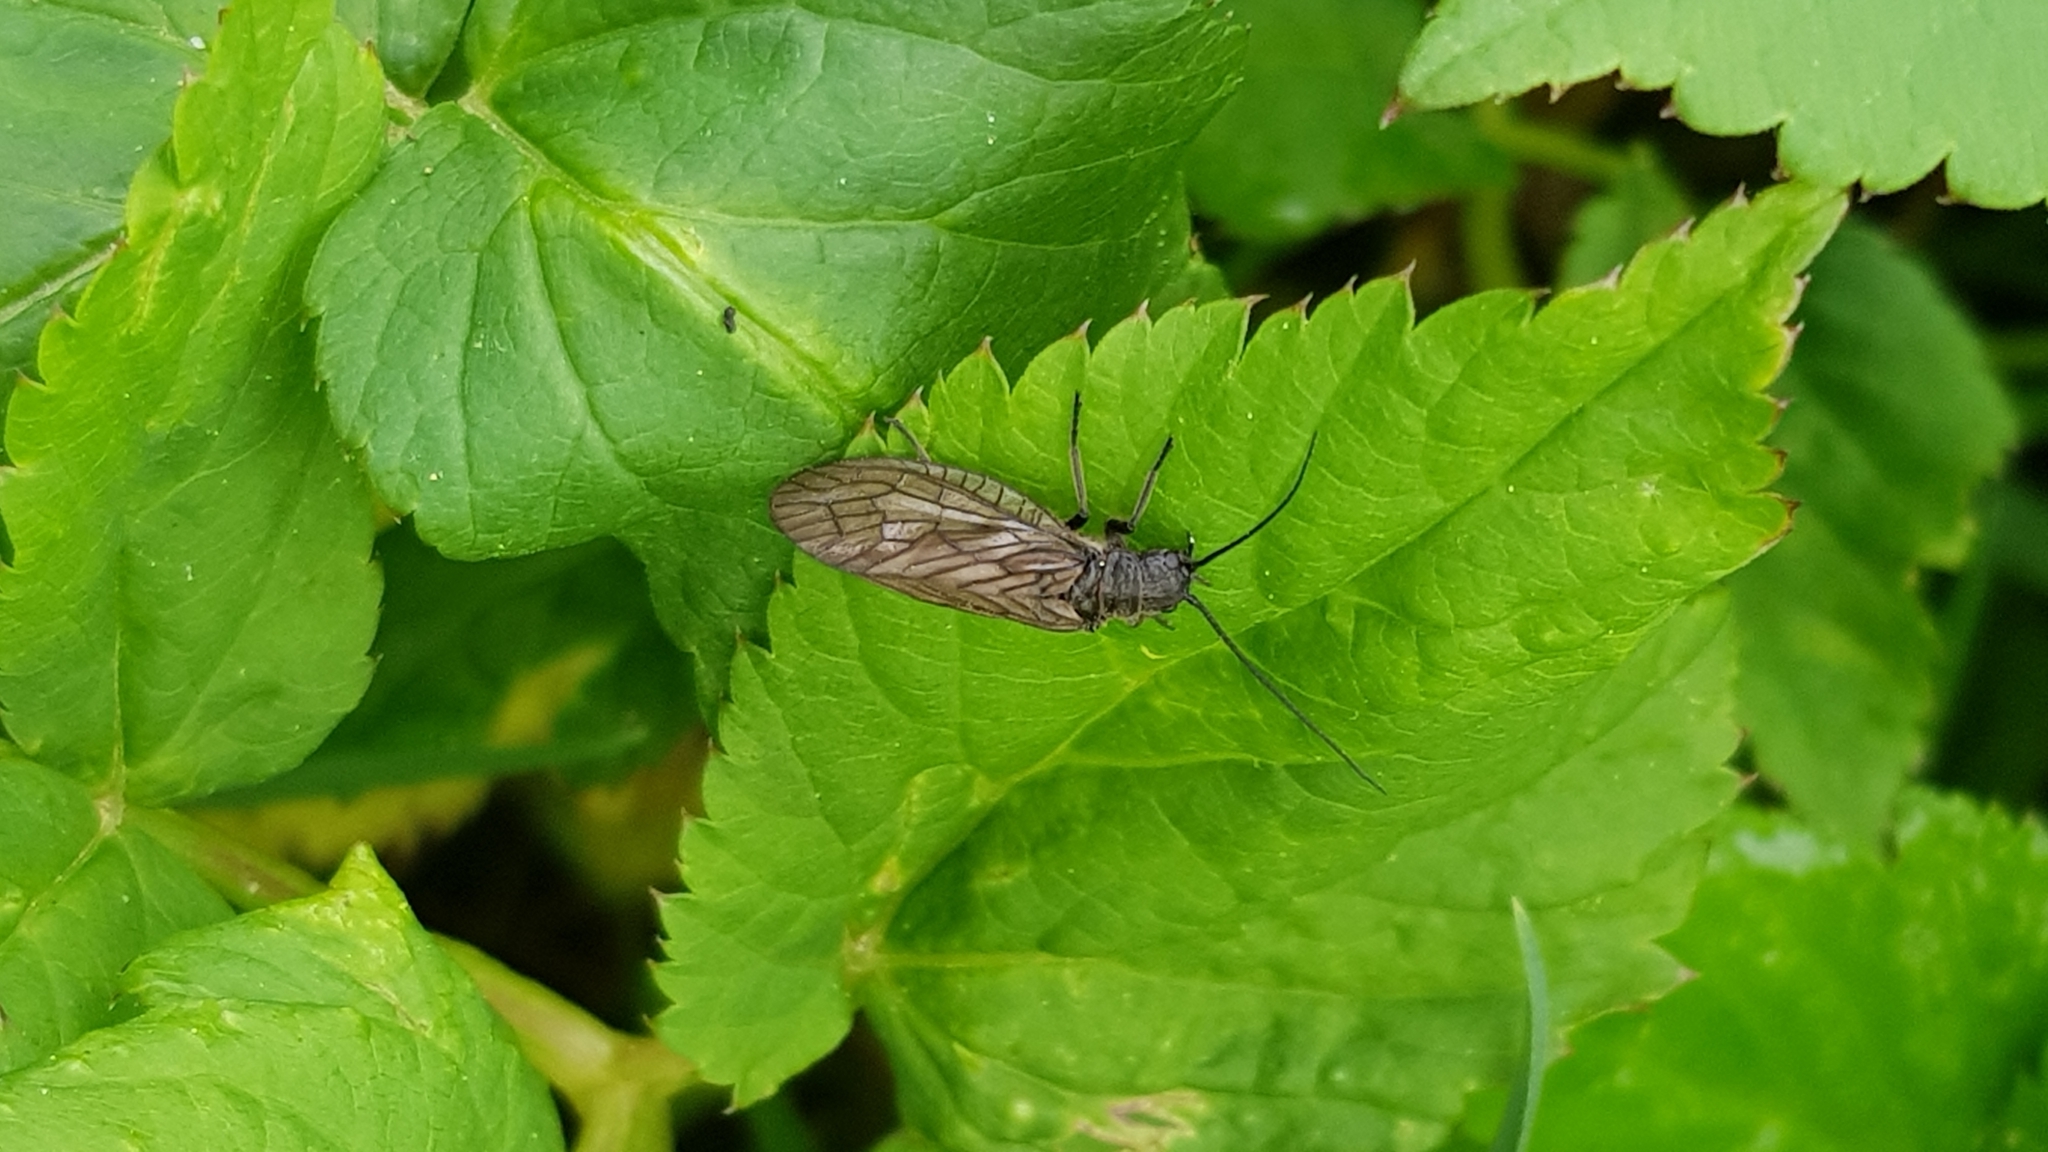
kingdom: Animalia
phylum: Arthropoda
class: Insecta
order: Megaloptera
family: Sialidae
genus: Sialis
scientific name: Sialis
